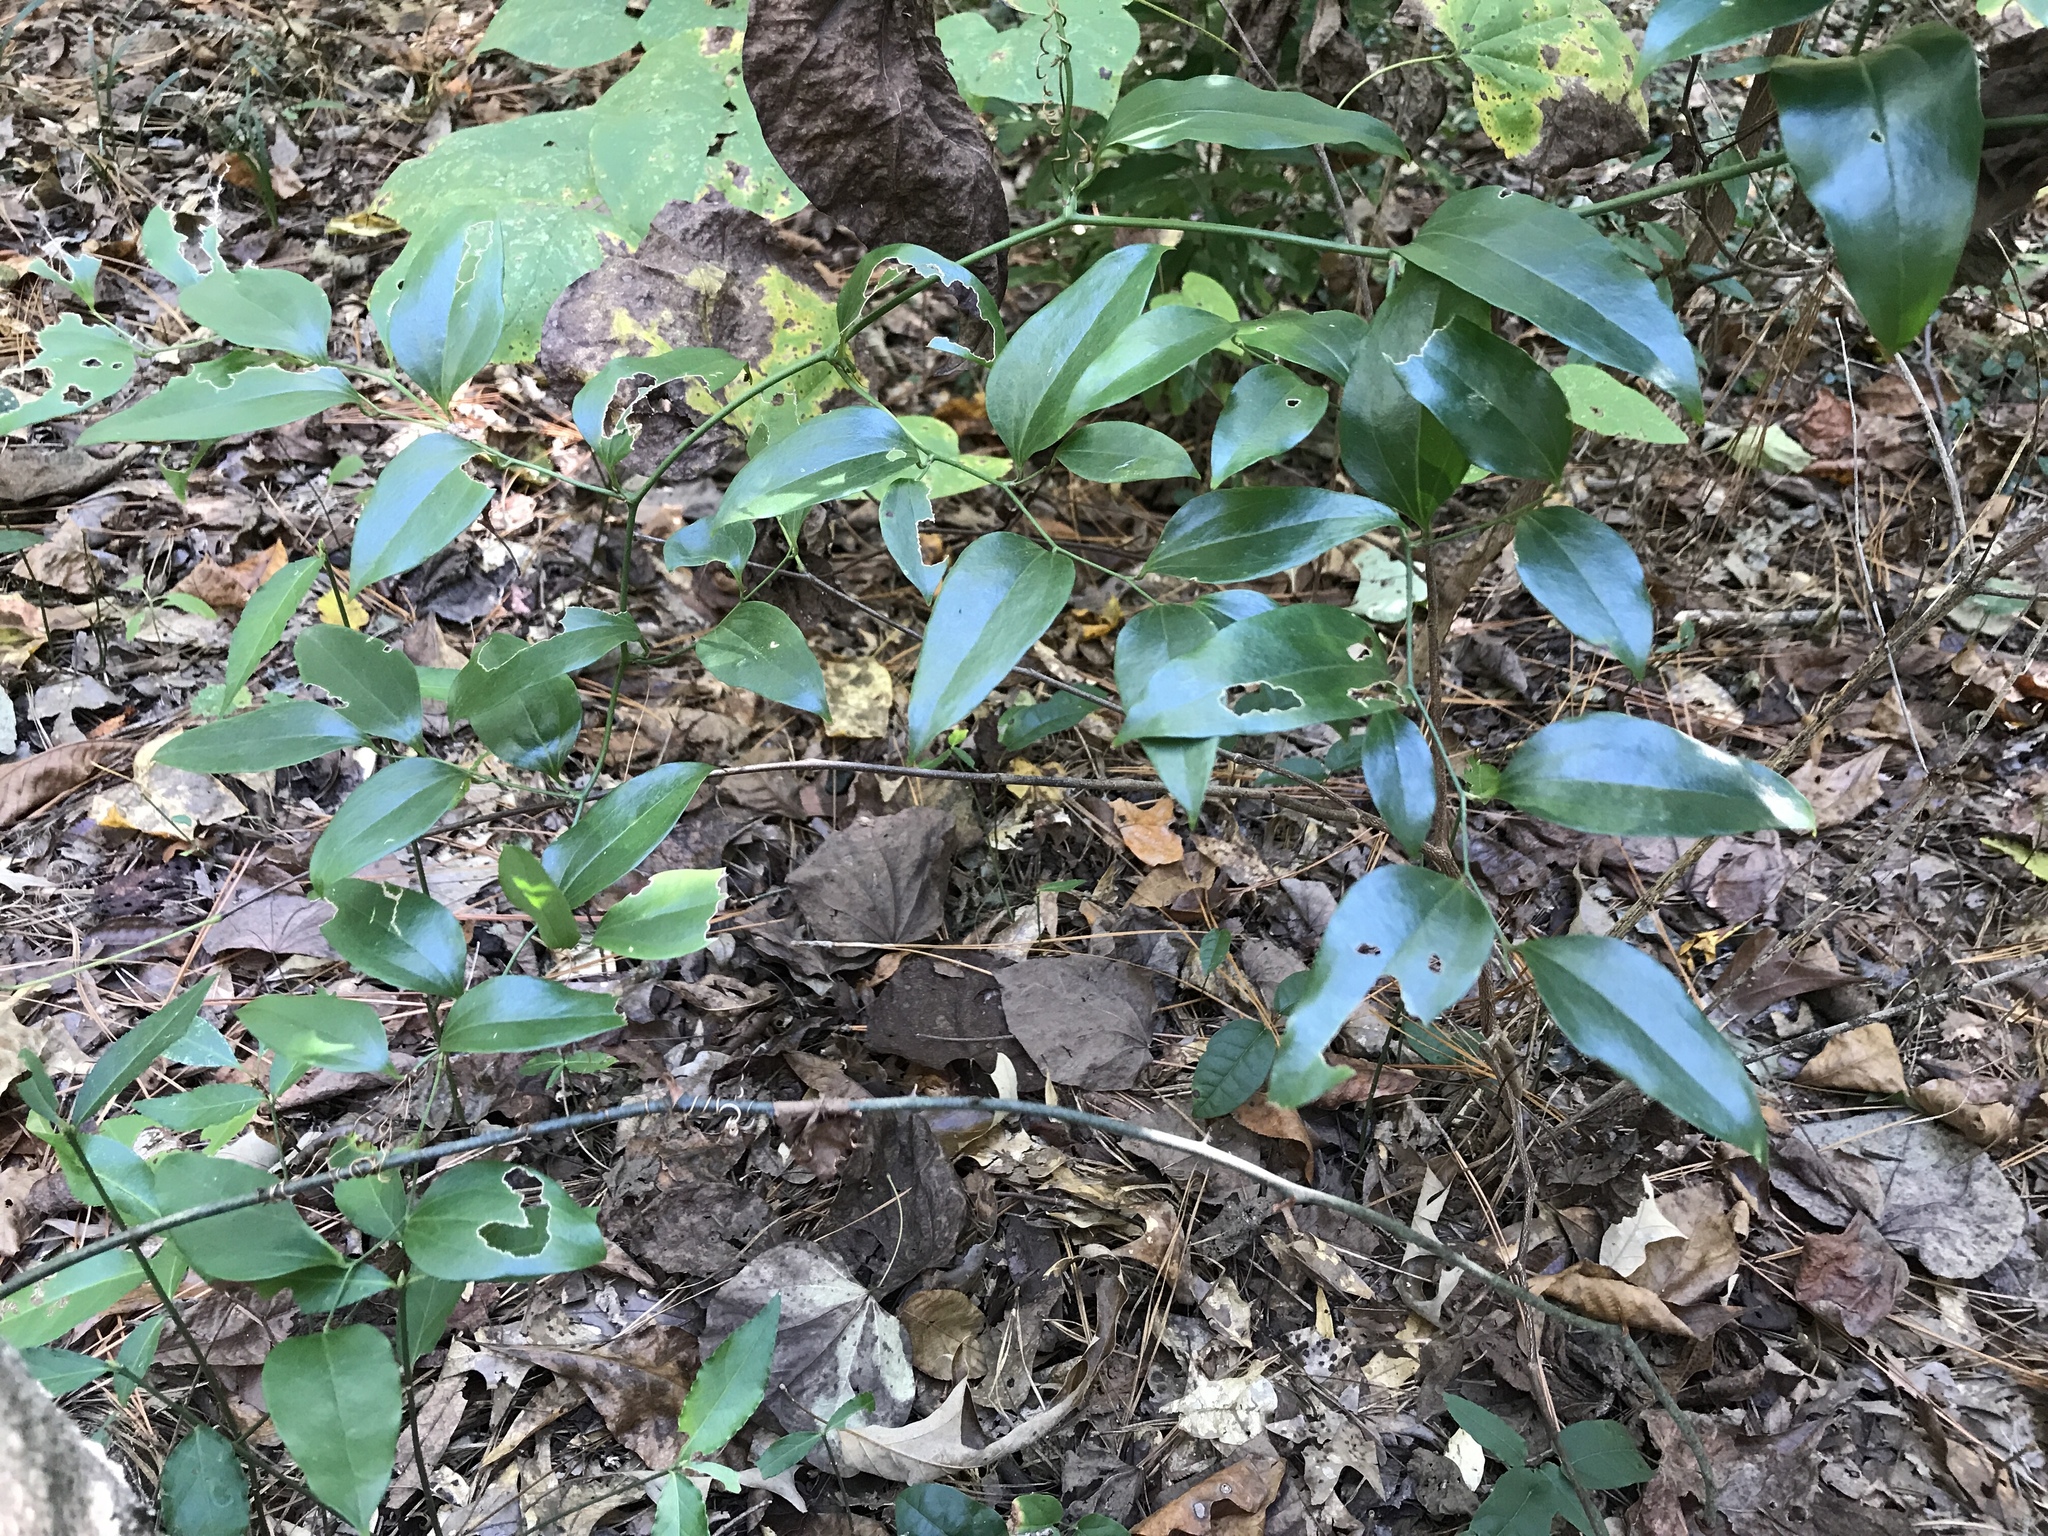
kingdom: Plantae
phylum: Tracheophyta
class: Liliopsida
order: Liliales
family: Smilacaceae
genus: Smilax
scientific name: Smilax maritima
